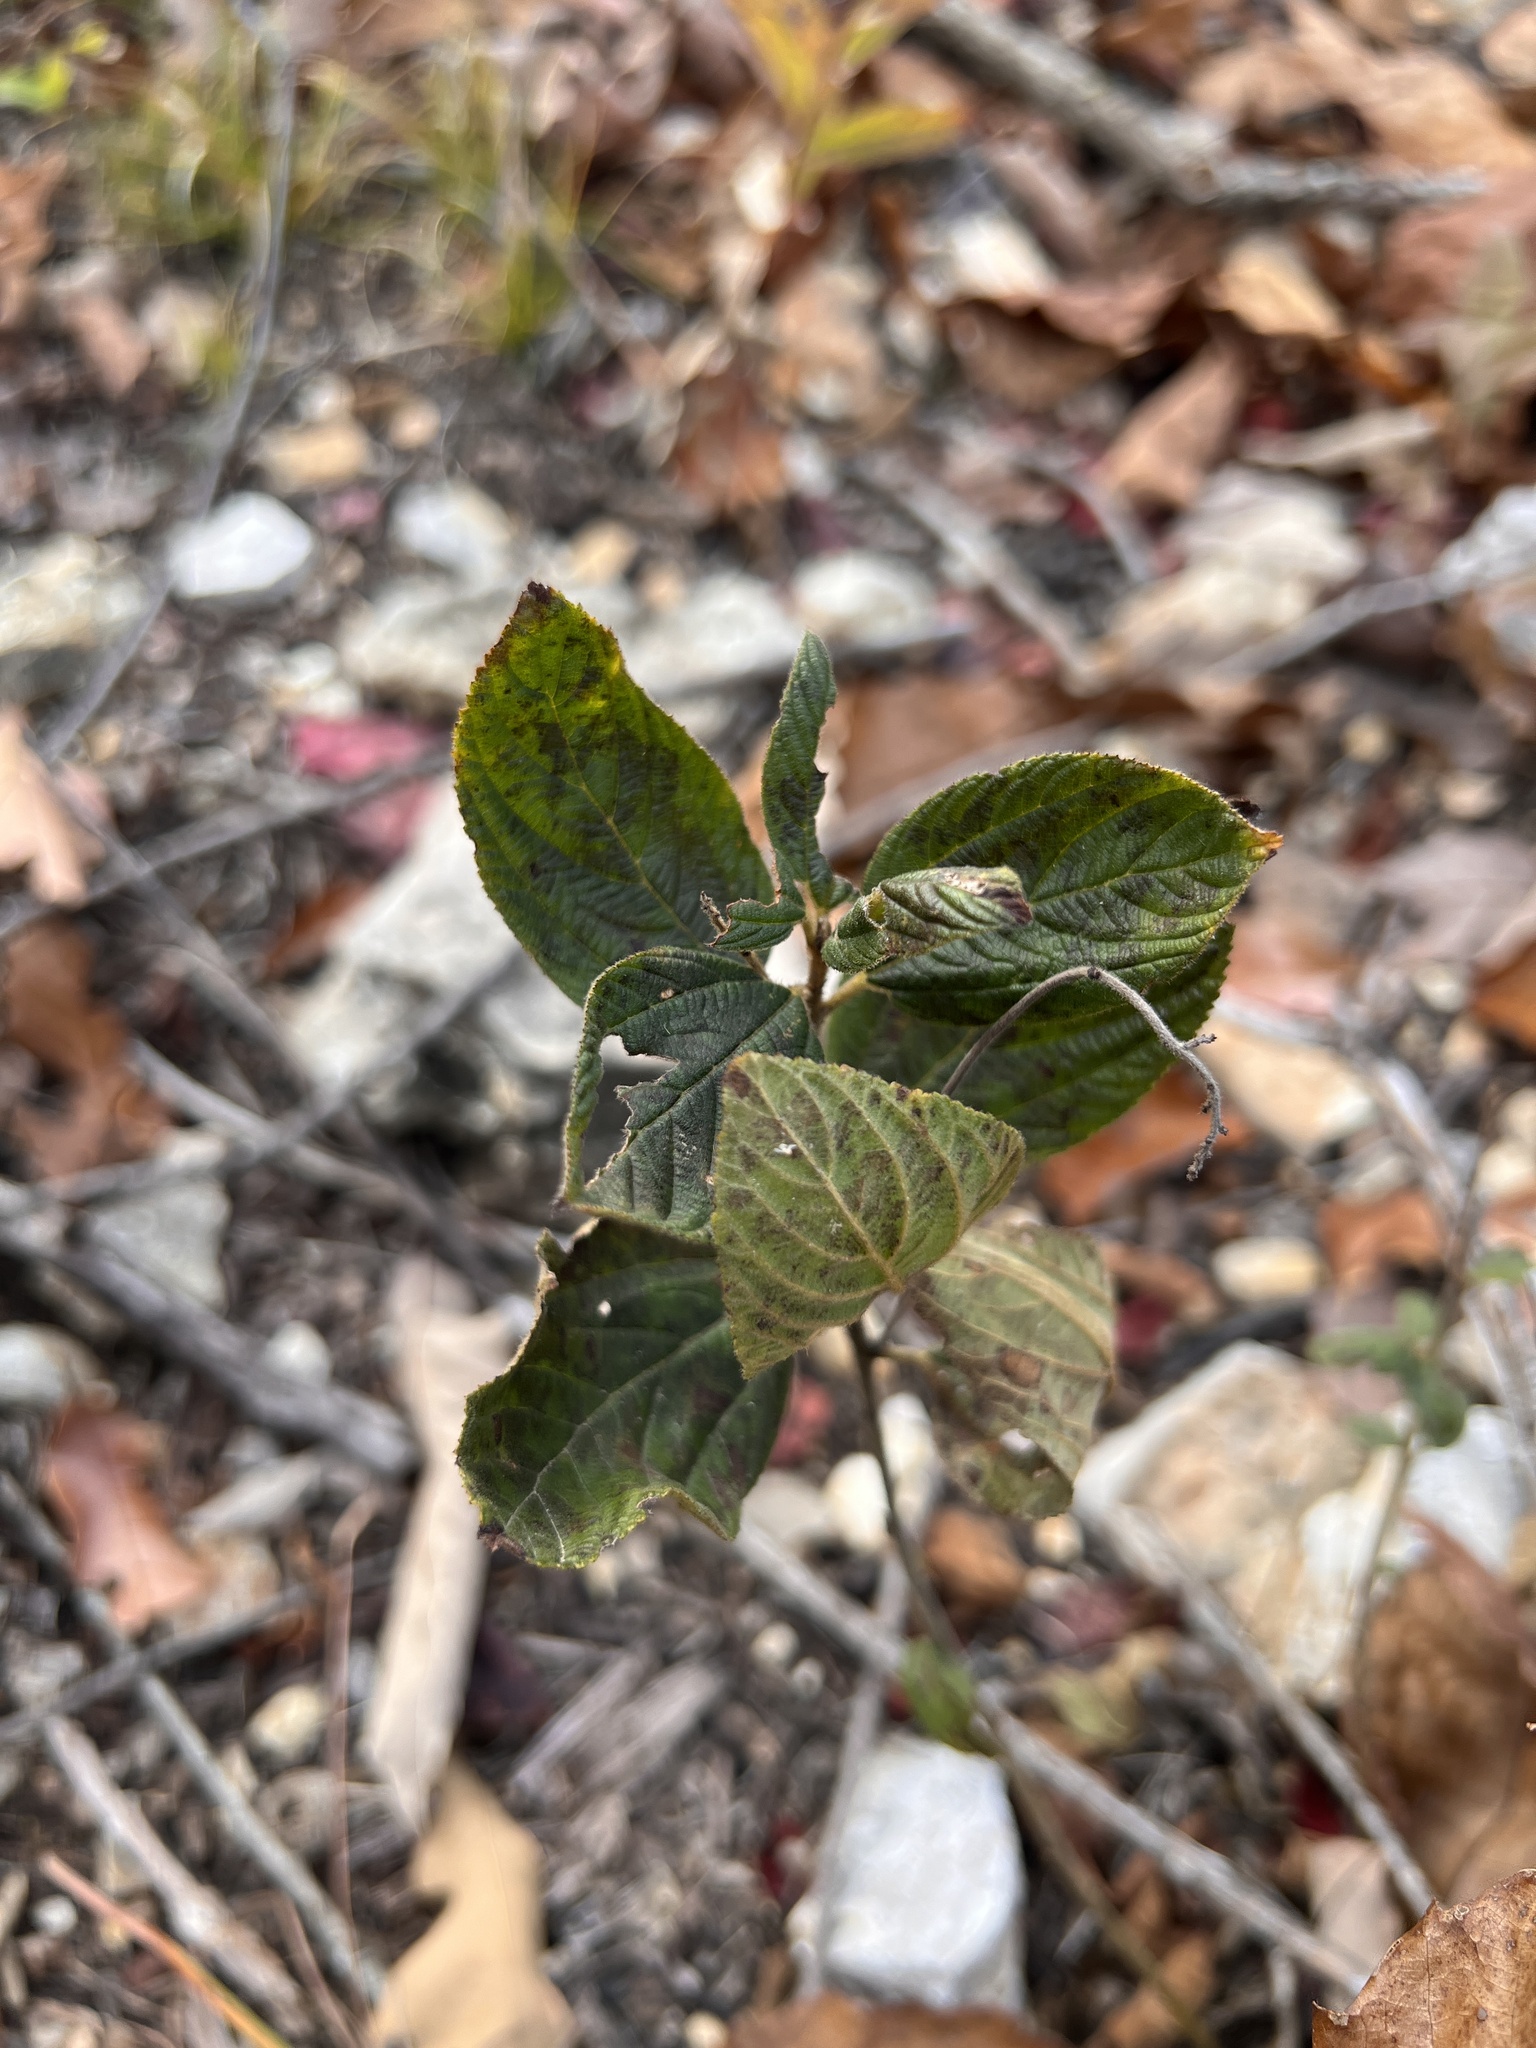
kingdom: Plantae
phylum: Tracheophyta
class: Magnoliopsida
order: Rosales
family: Rhamnaceae
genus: Ceanothus
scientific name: Ceanothus americanus
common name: Redroot
